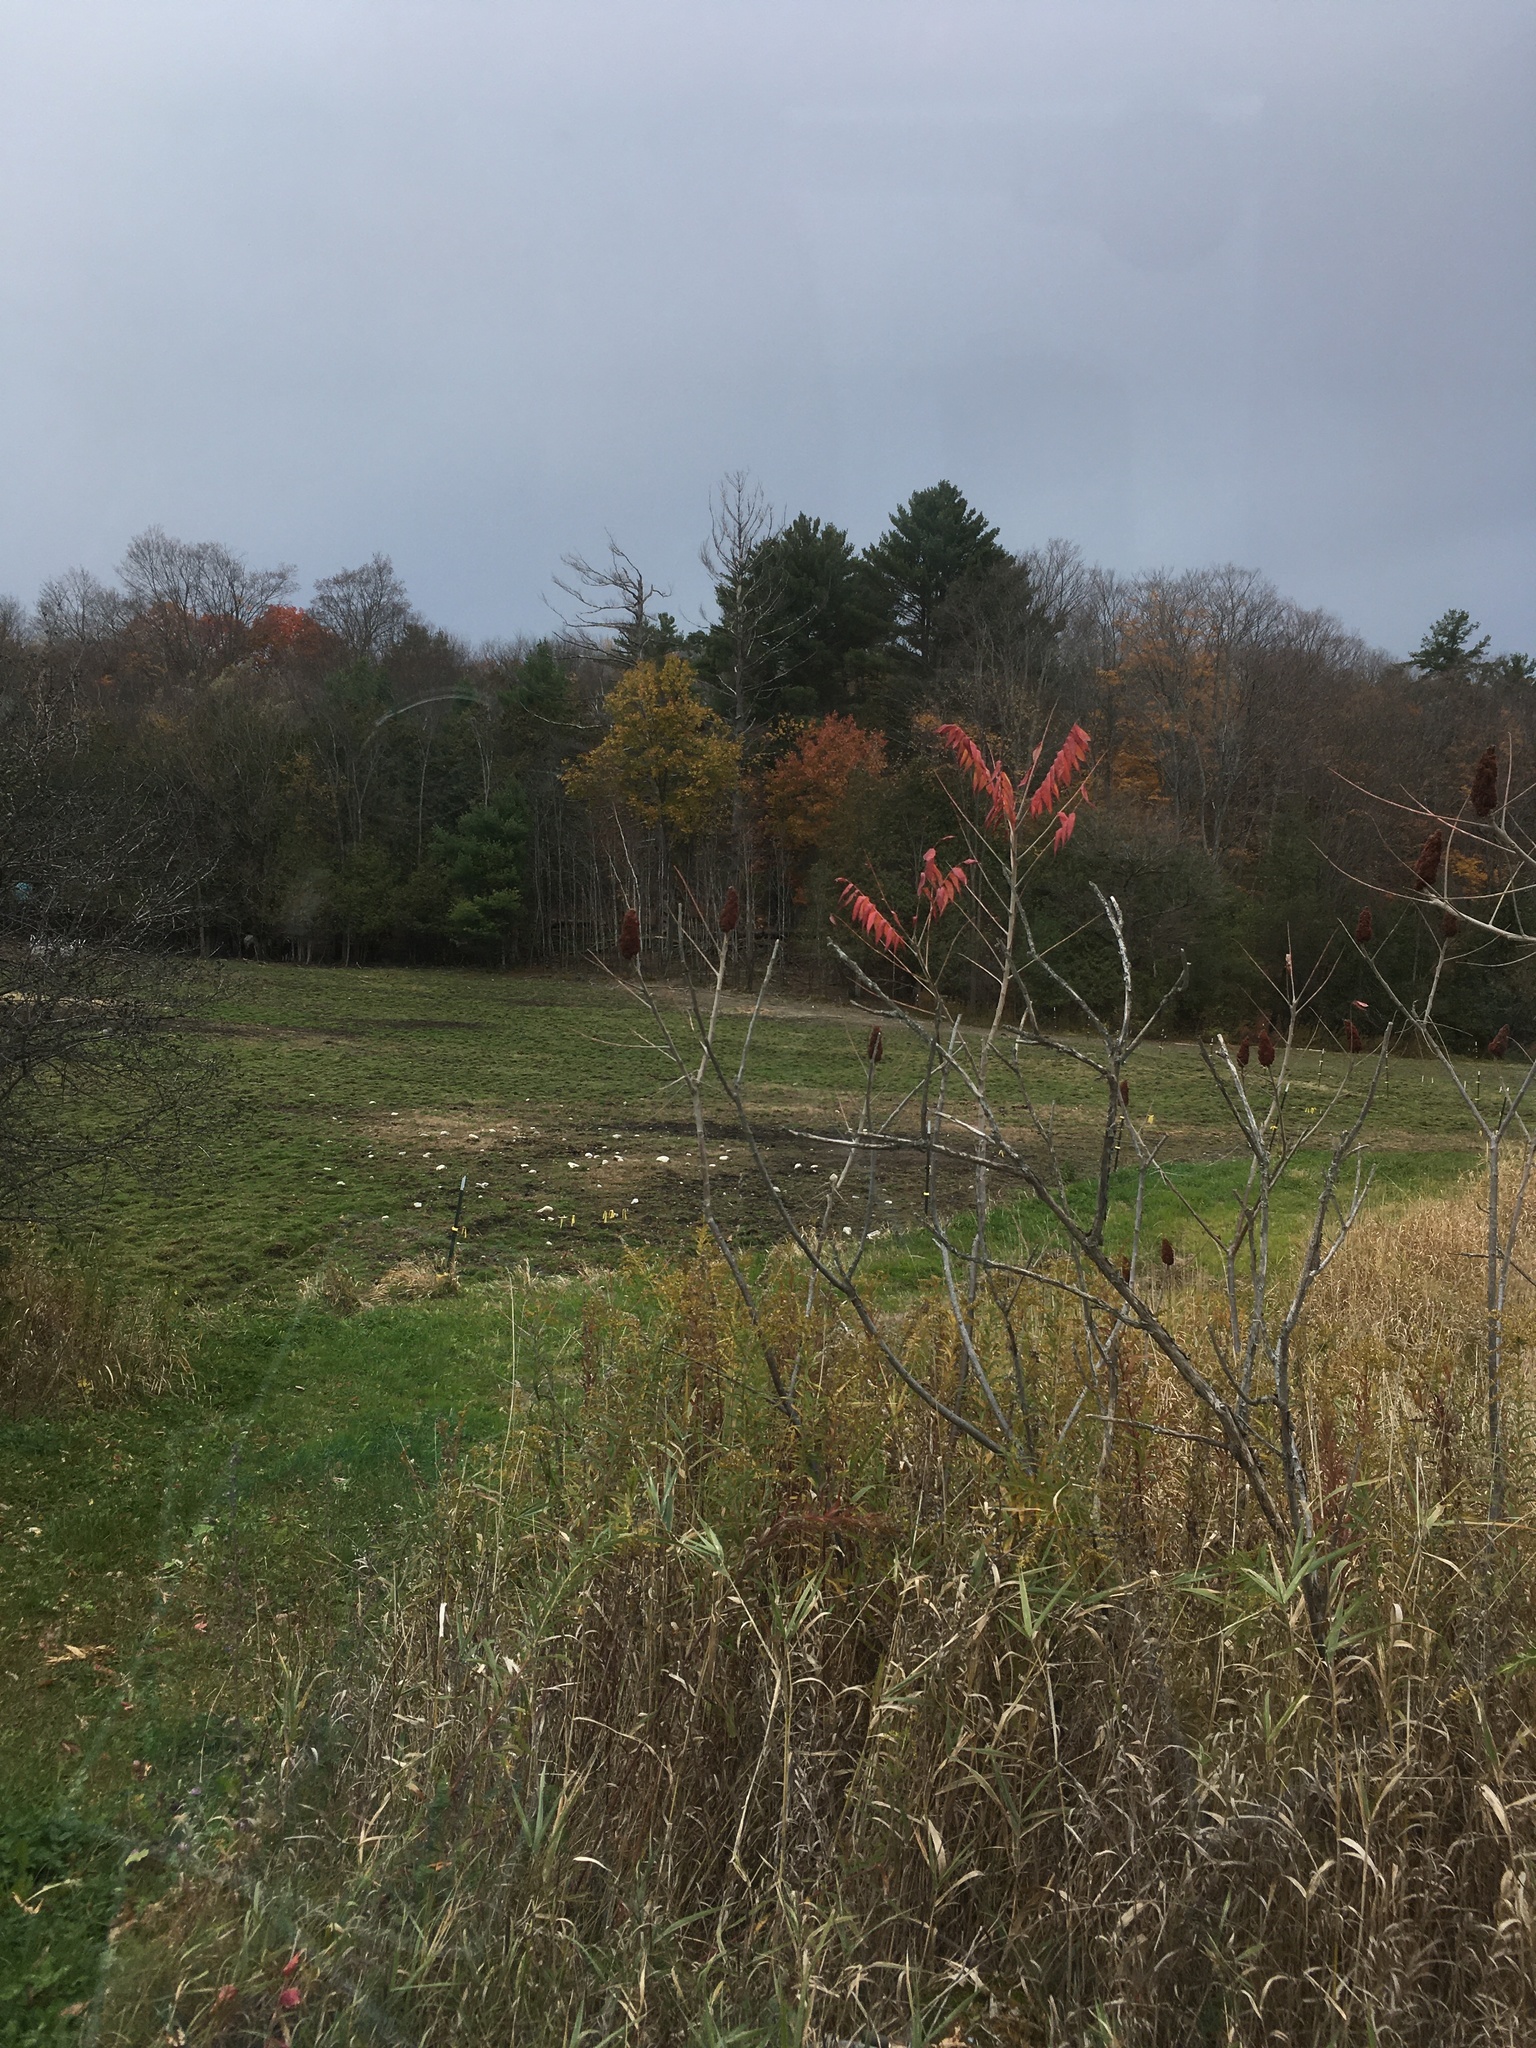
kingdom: Plantae
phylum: Tracheophyta
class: Magnoliopsida
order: Sapindales
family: Anacardiaceae
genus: Rhus
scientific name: Rhus typhina
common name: Staghorn sumac
